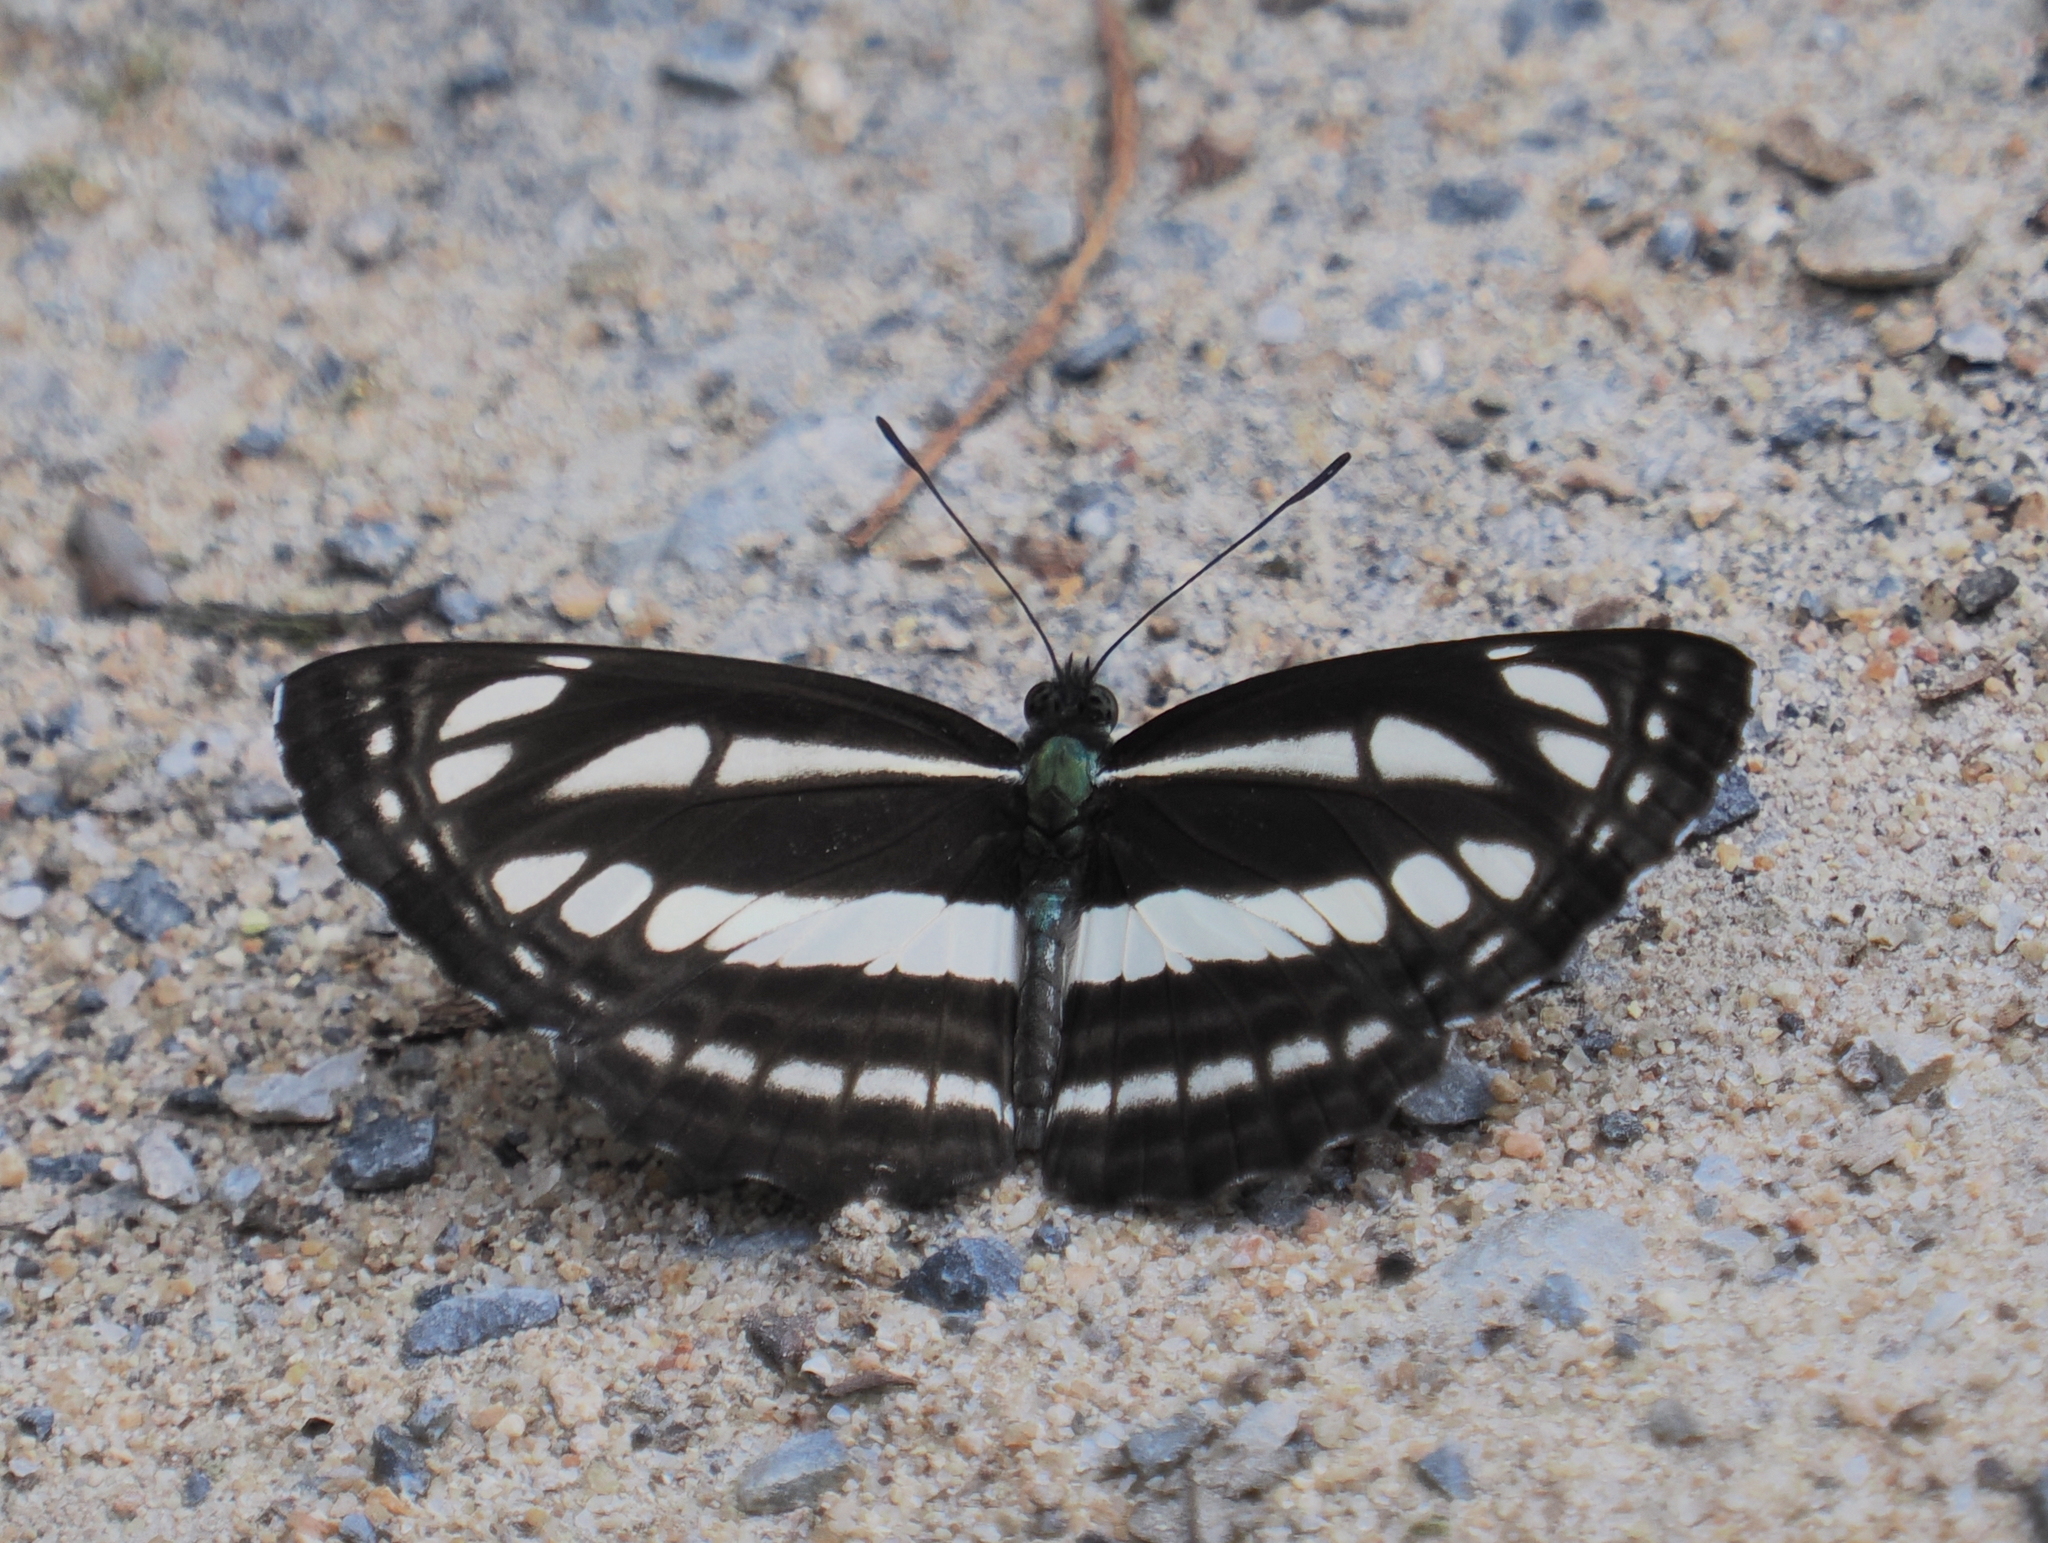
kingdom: Animalia
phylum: Arthropoda
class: Insecta
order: Lepidoptera
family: Nymphalidae
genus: Neptis
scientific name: Neptis clinia
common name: Southern sullied sailer
